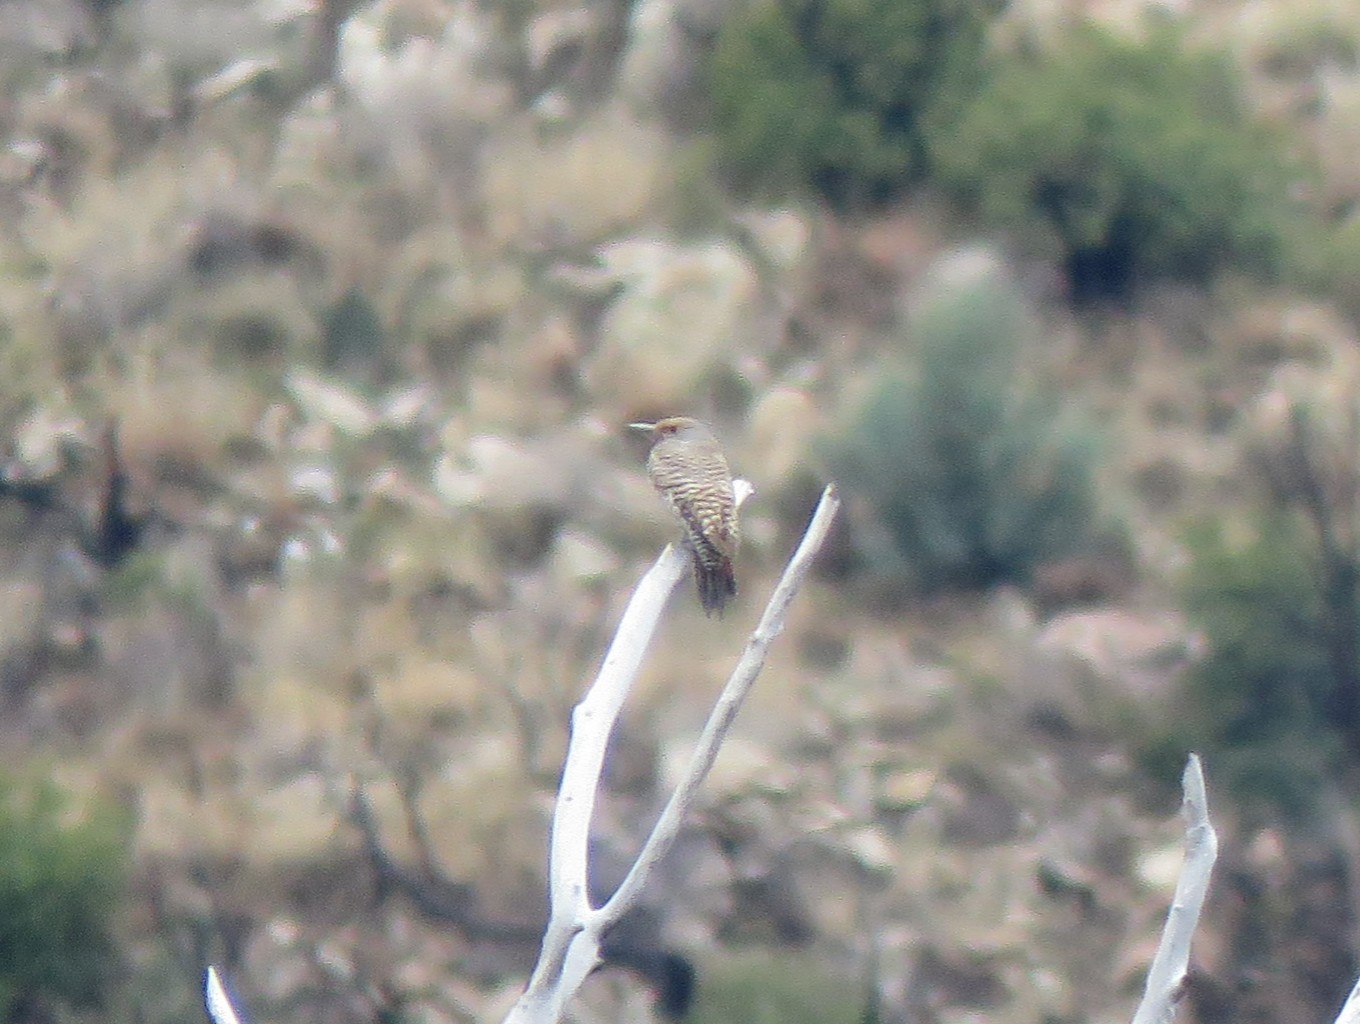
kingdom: Animalia
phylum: Chordata
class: Aves
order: Piciformes
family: Picidae
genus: Colaptes
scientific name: Colaptes auratus
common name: Northern flicker
